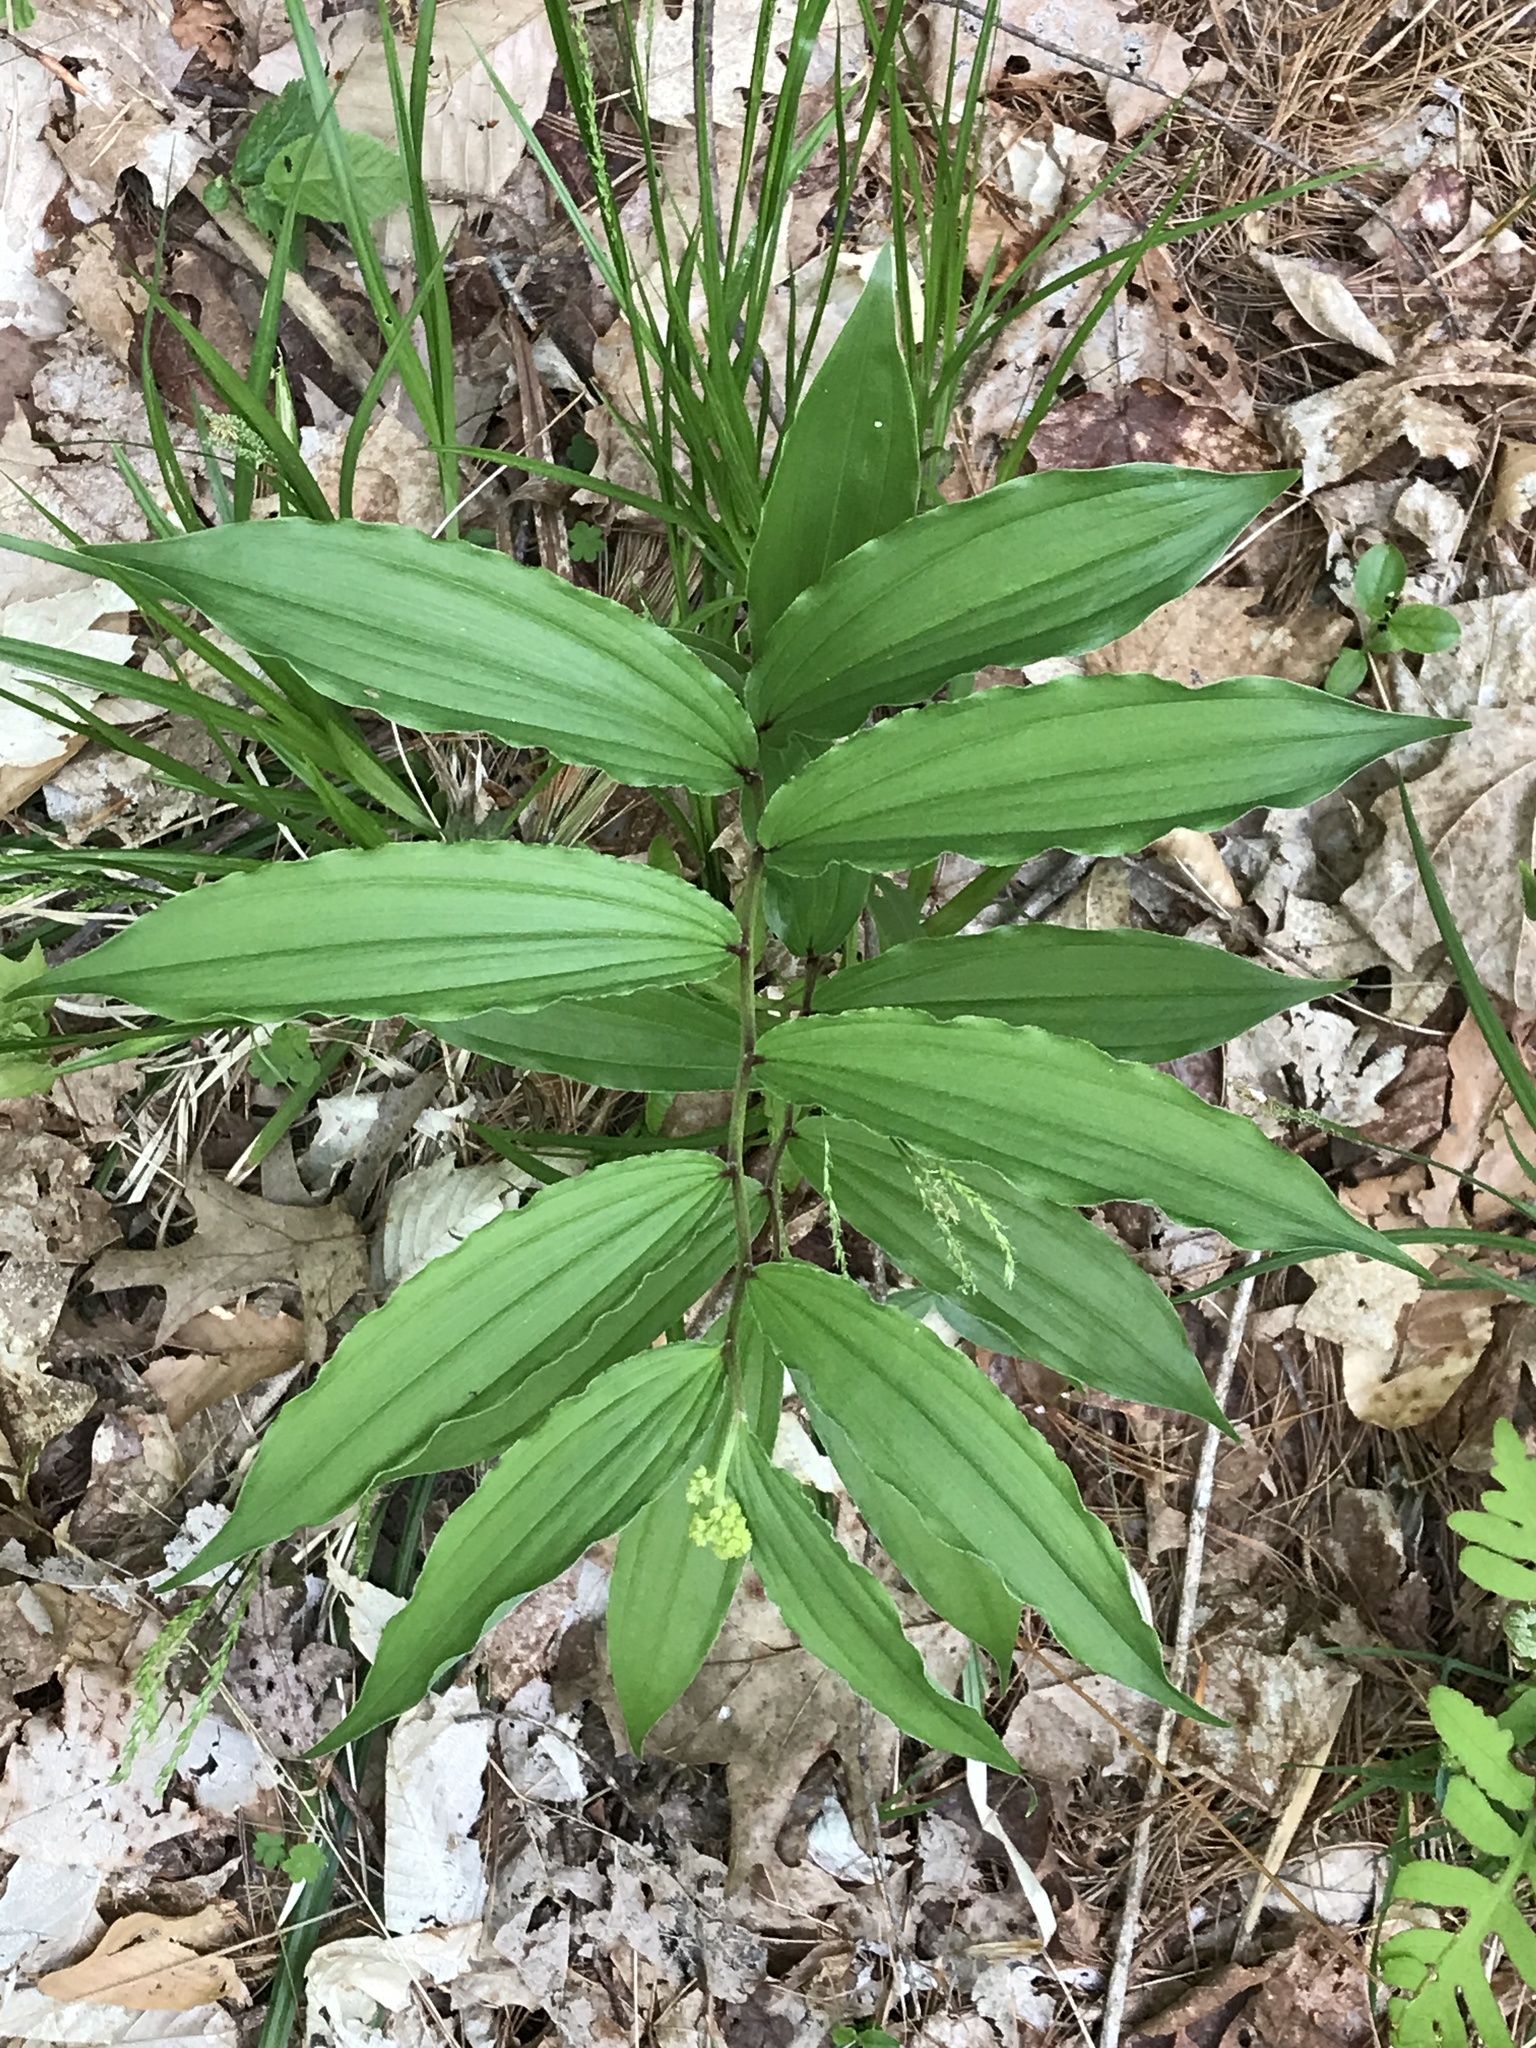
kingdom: Plantae
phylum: Tracheophyta
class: Liliopsida
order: Asparagales
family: Asparagaceae
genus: Maianthemum
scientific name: Maianthemum racemosum
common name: False spikenard
